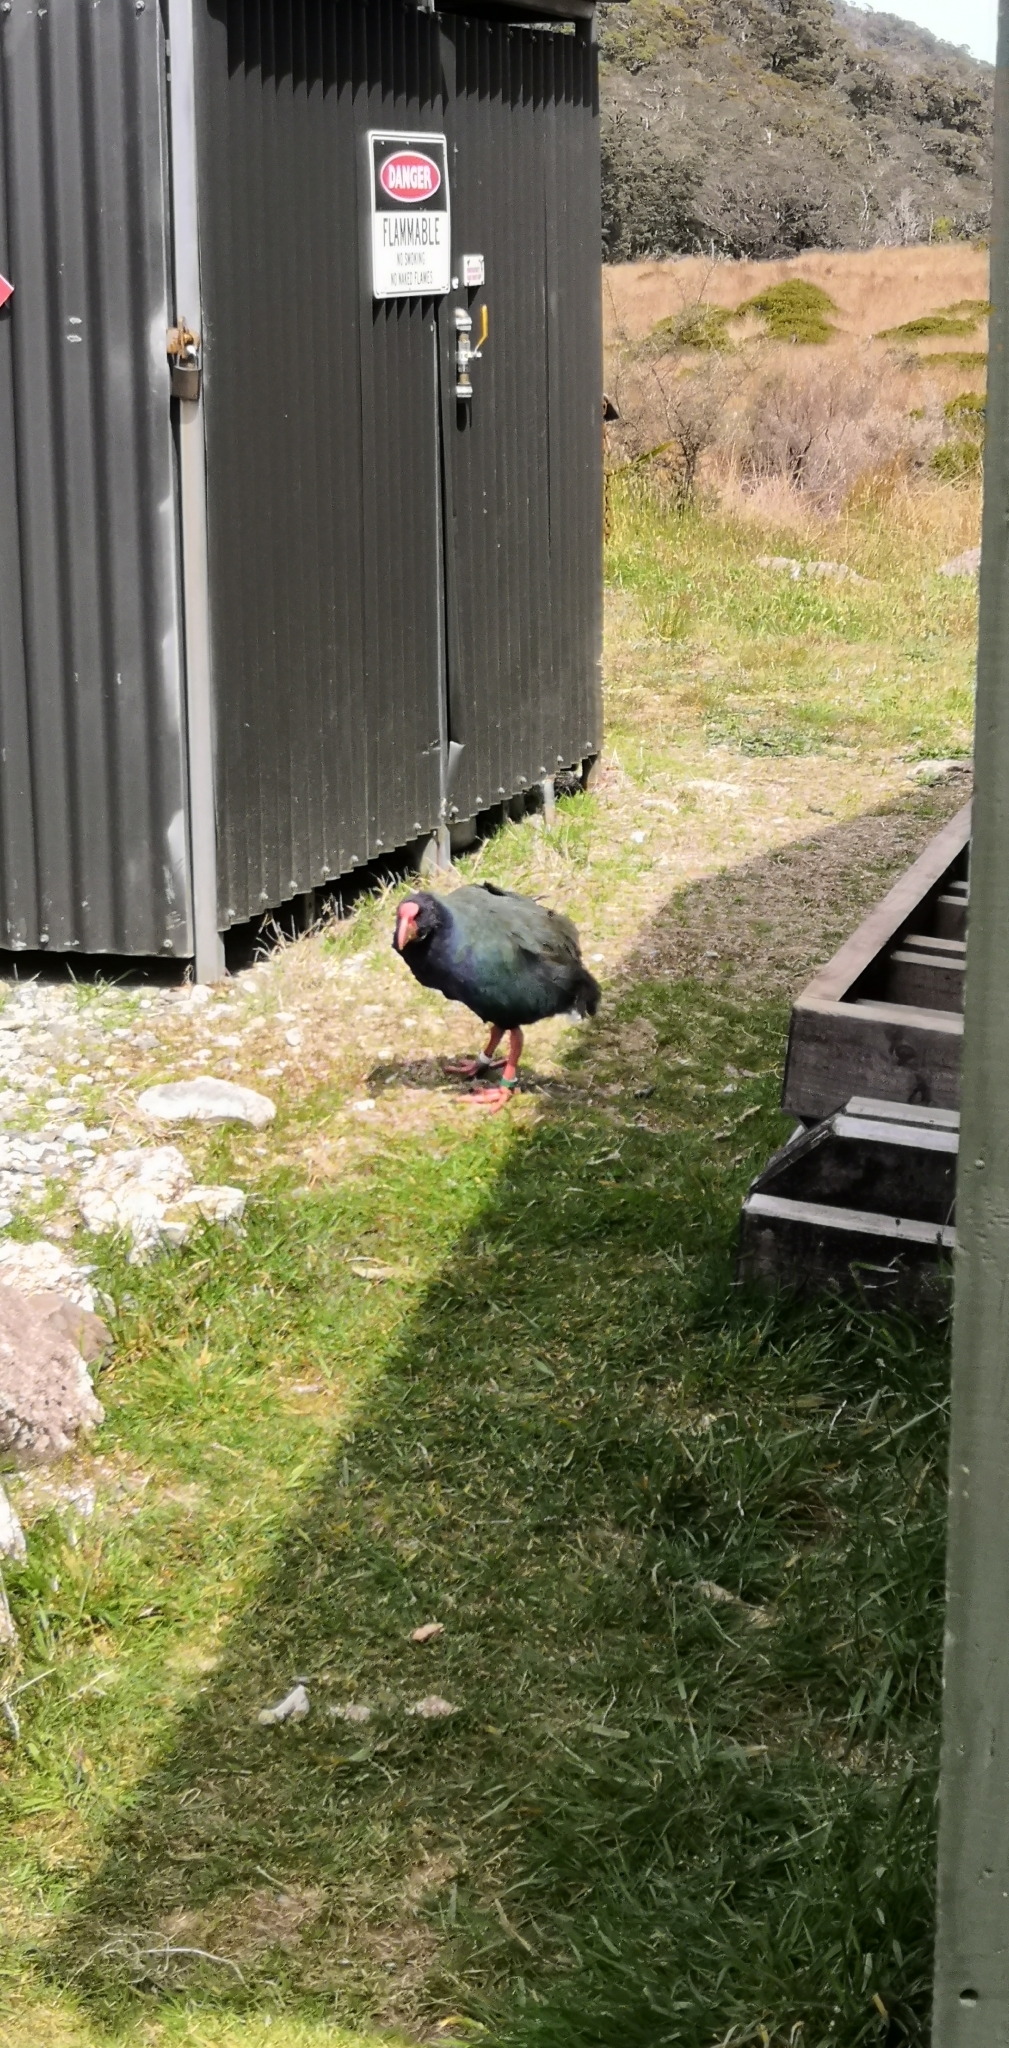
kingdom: Animalia
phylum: Chordata
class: Aves
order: Gruiformes
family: Rallidae
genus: Porphyrio
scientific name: Porphyrio hochstetteri
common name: South island takahe
